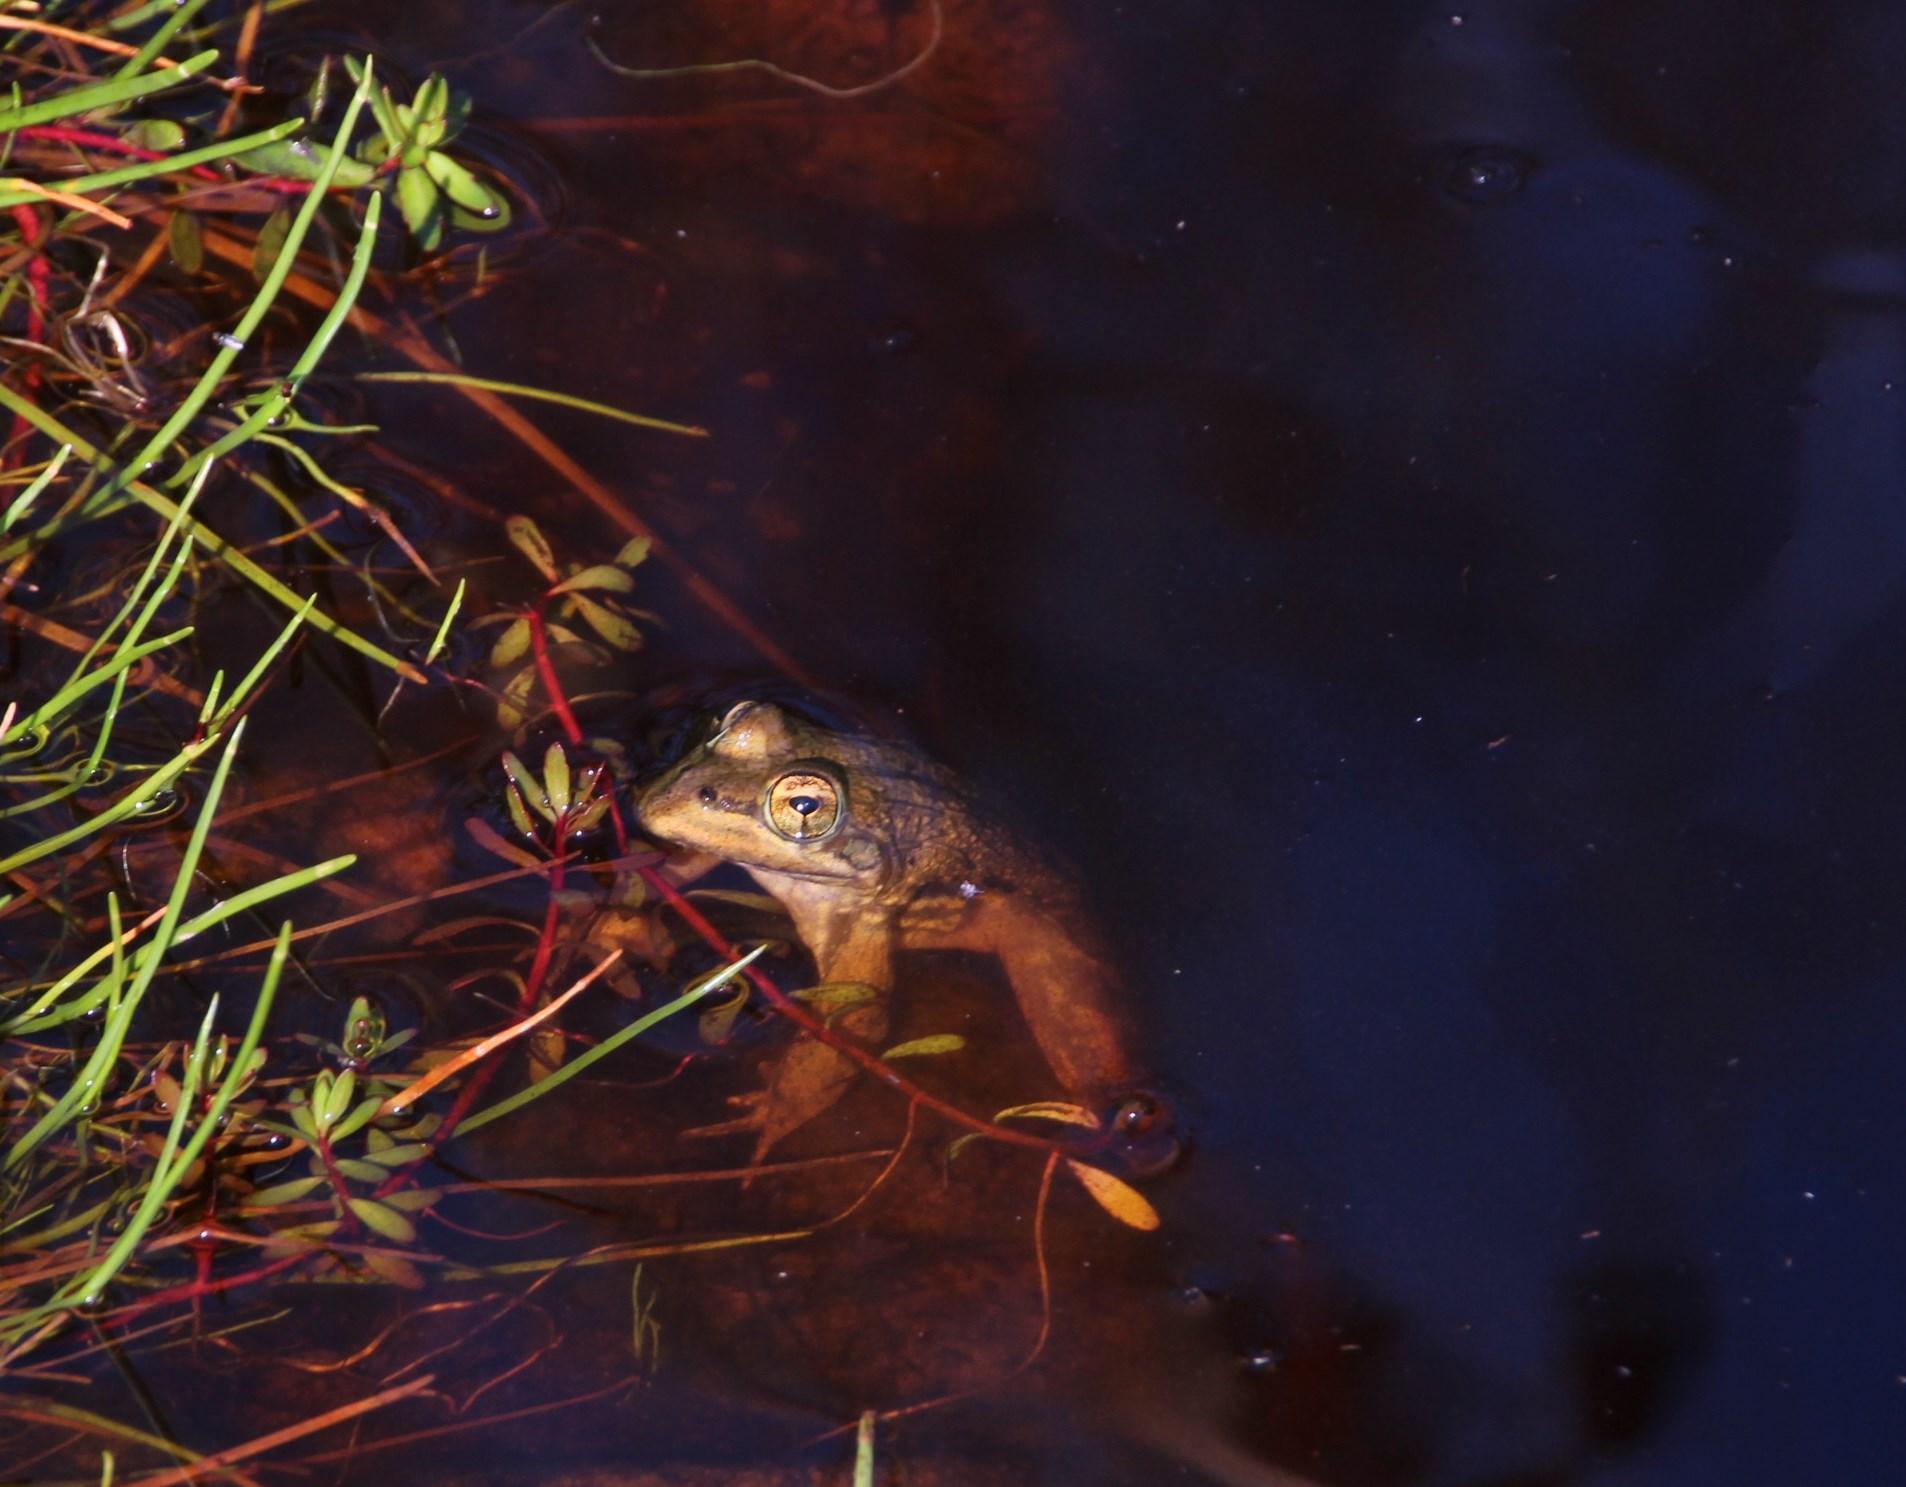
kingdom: Animalia
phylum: Chordata
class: Amphibia
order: Anura
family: Pyxicephalidae
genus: Amietia
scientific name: Amietia fuscigula
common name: Cape rana
